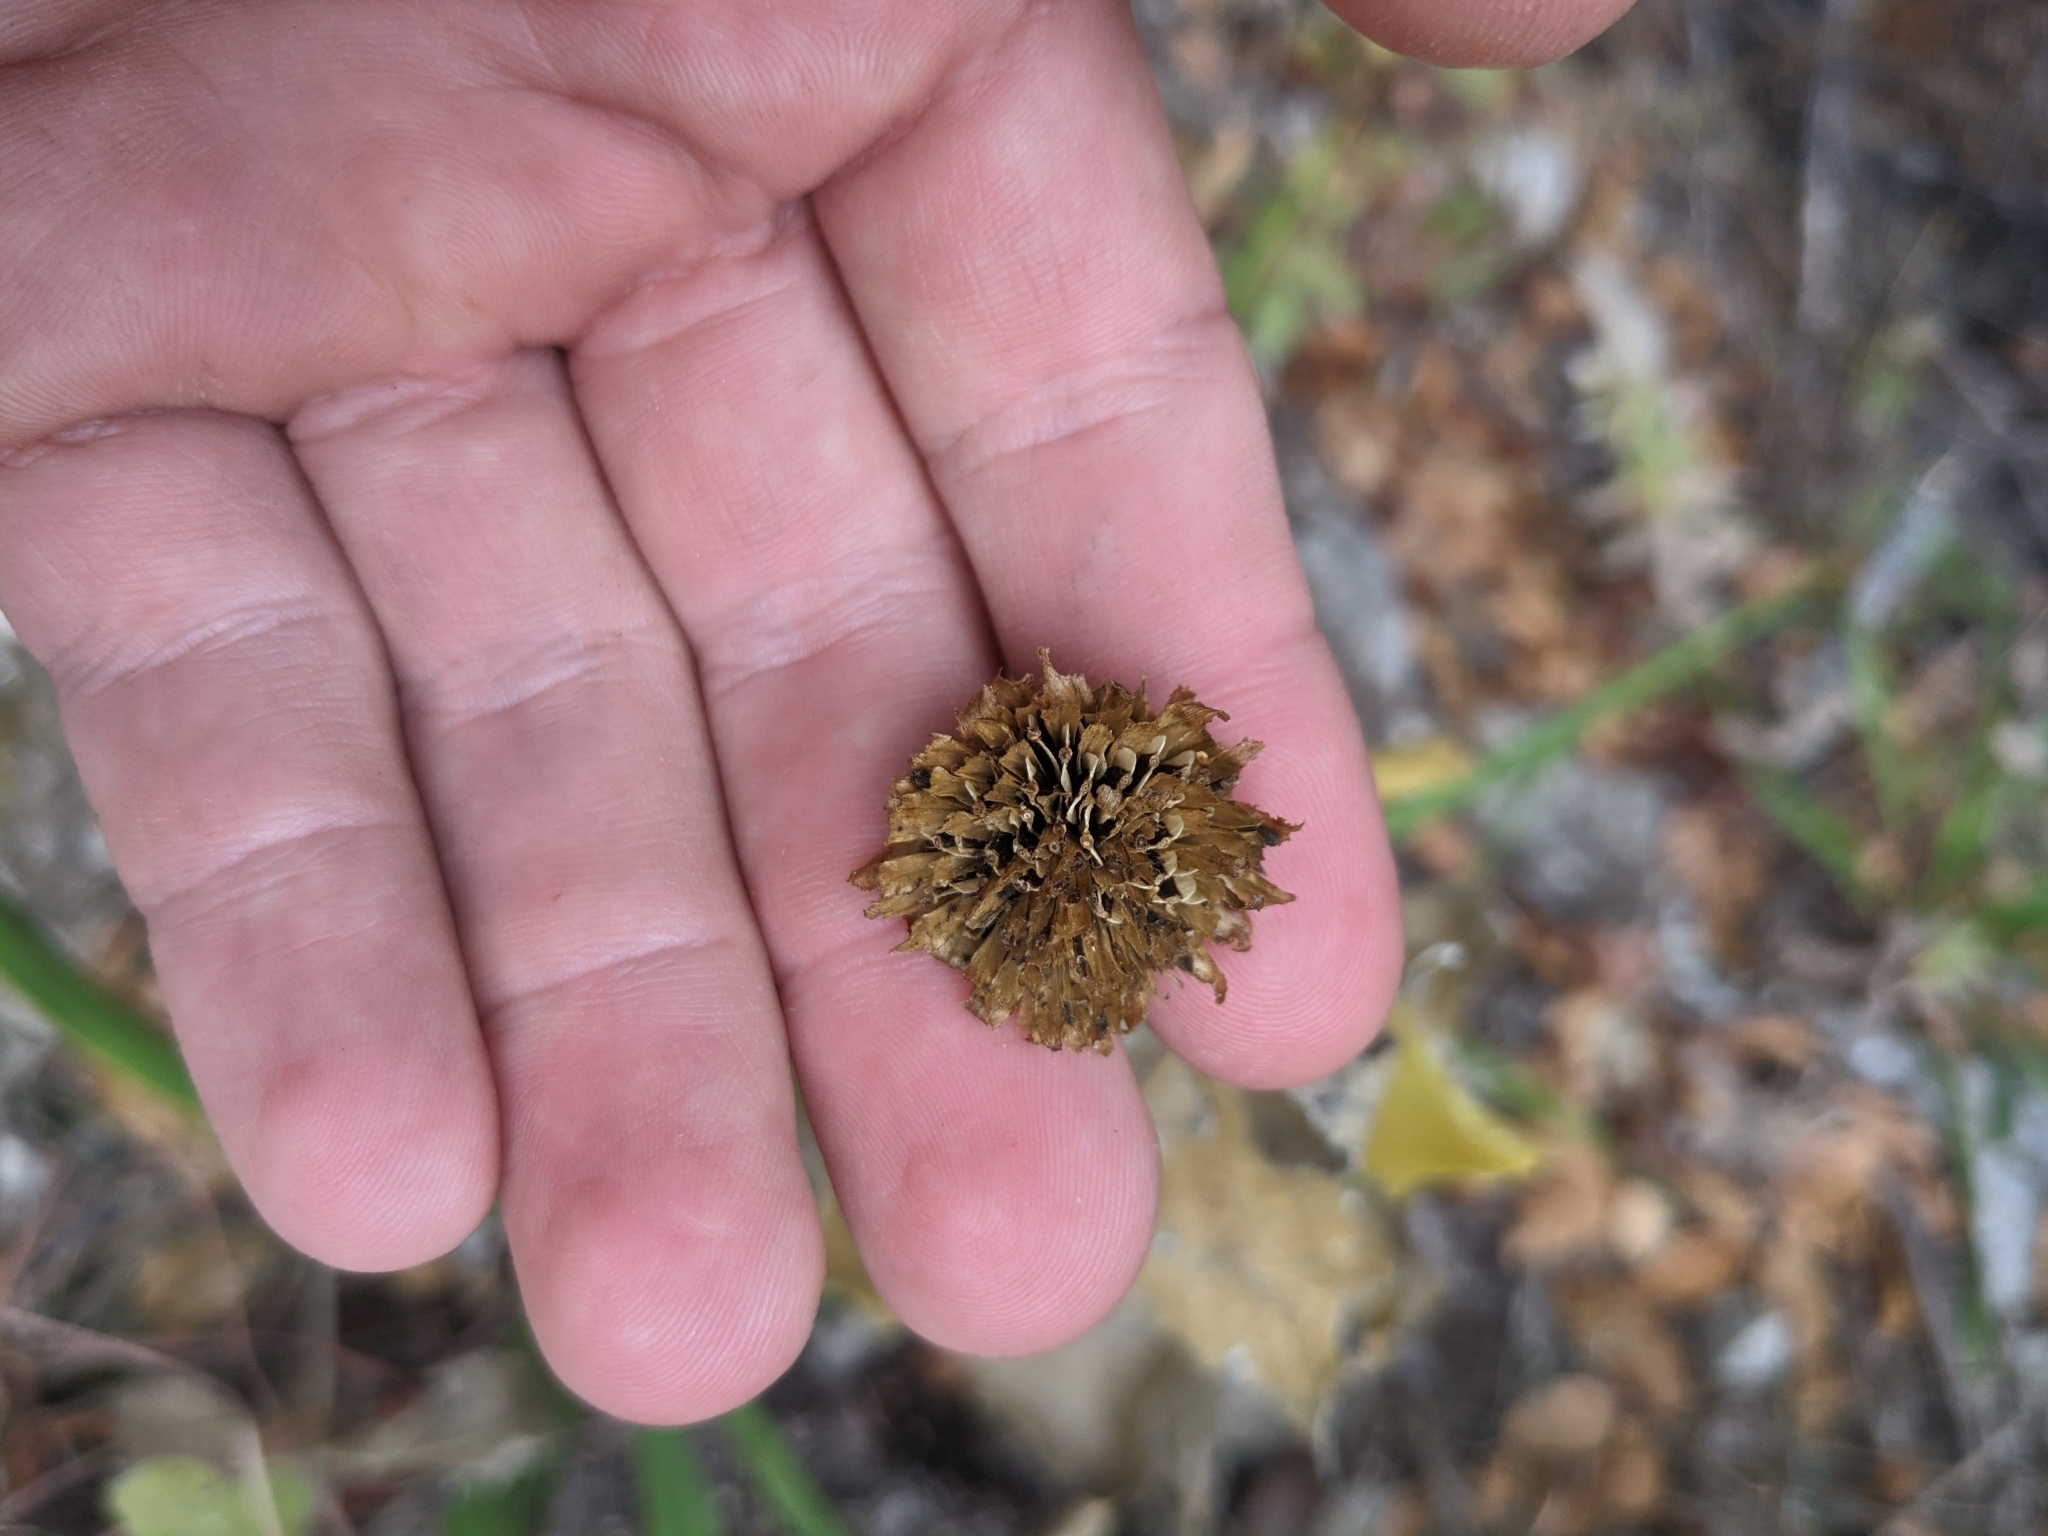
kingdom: Plantae
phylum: Tracheophyta
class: Magnoliopsida
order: Asterales
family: Asteraceae
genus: Verbesina
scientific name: Verbesina lindheimeri
